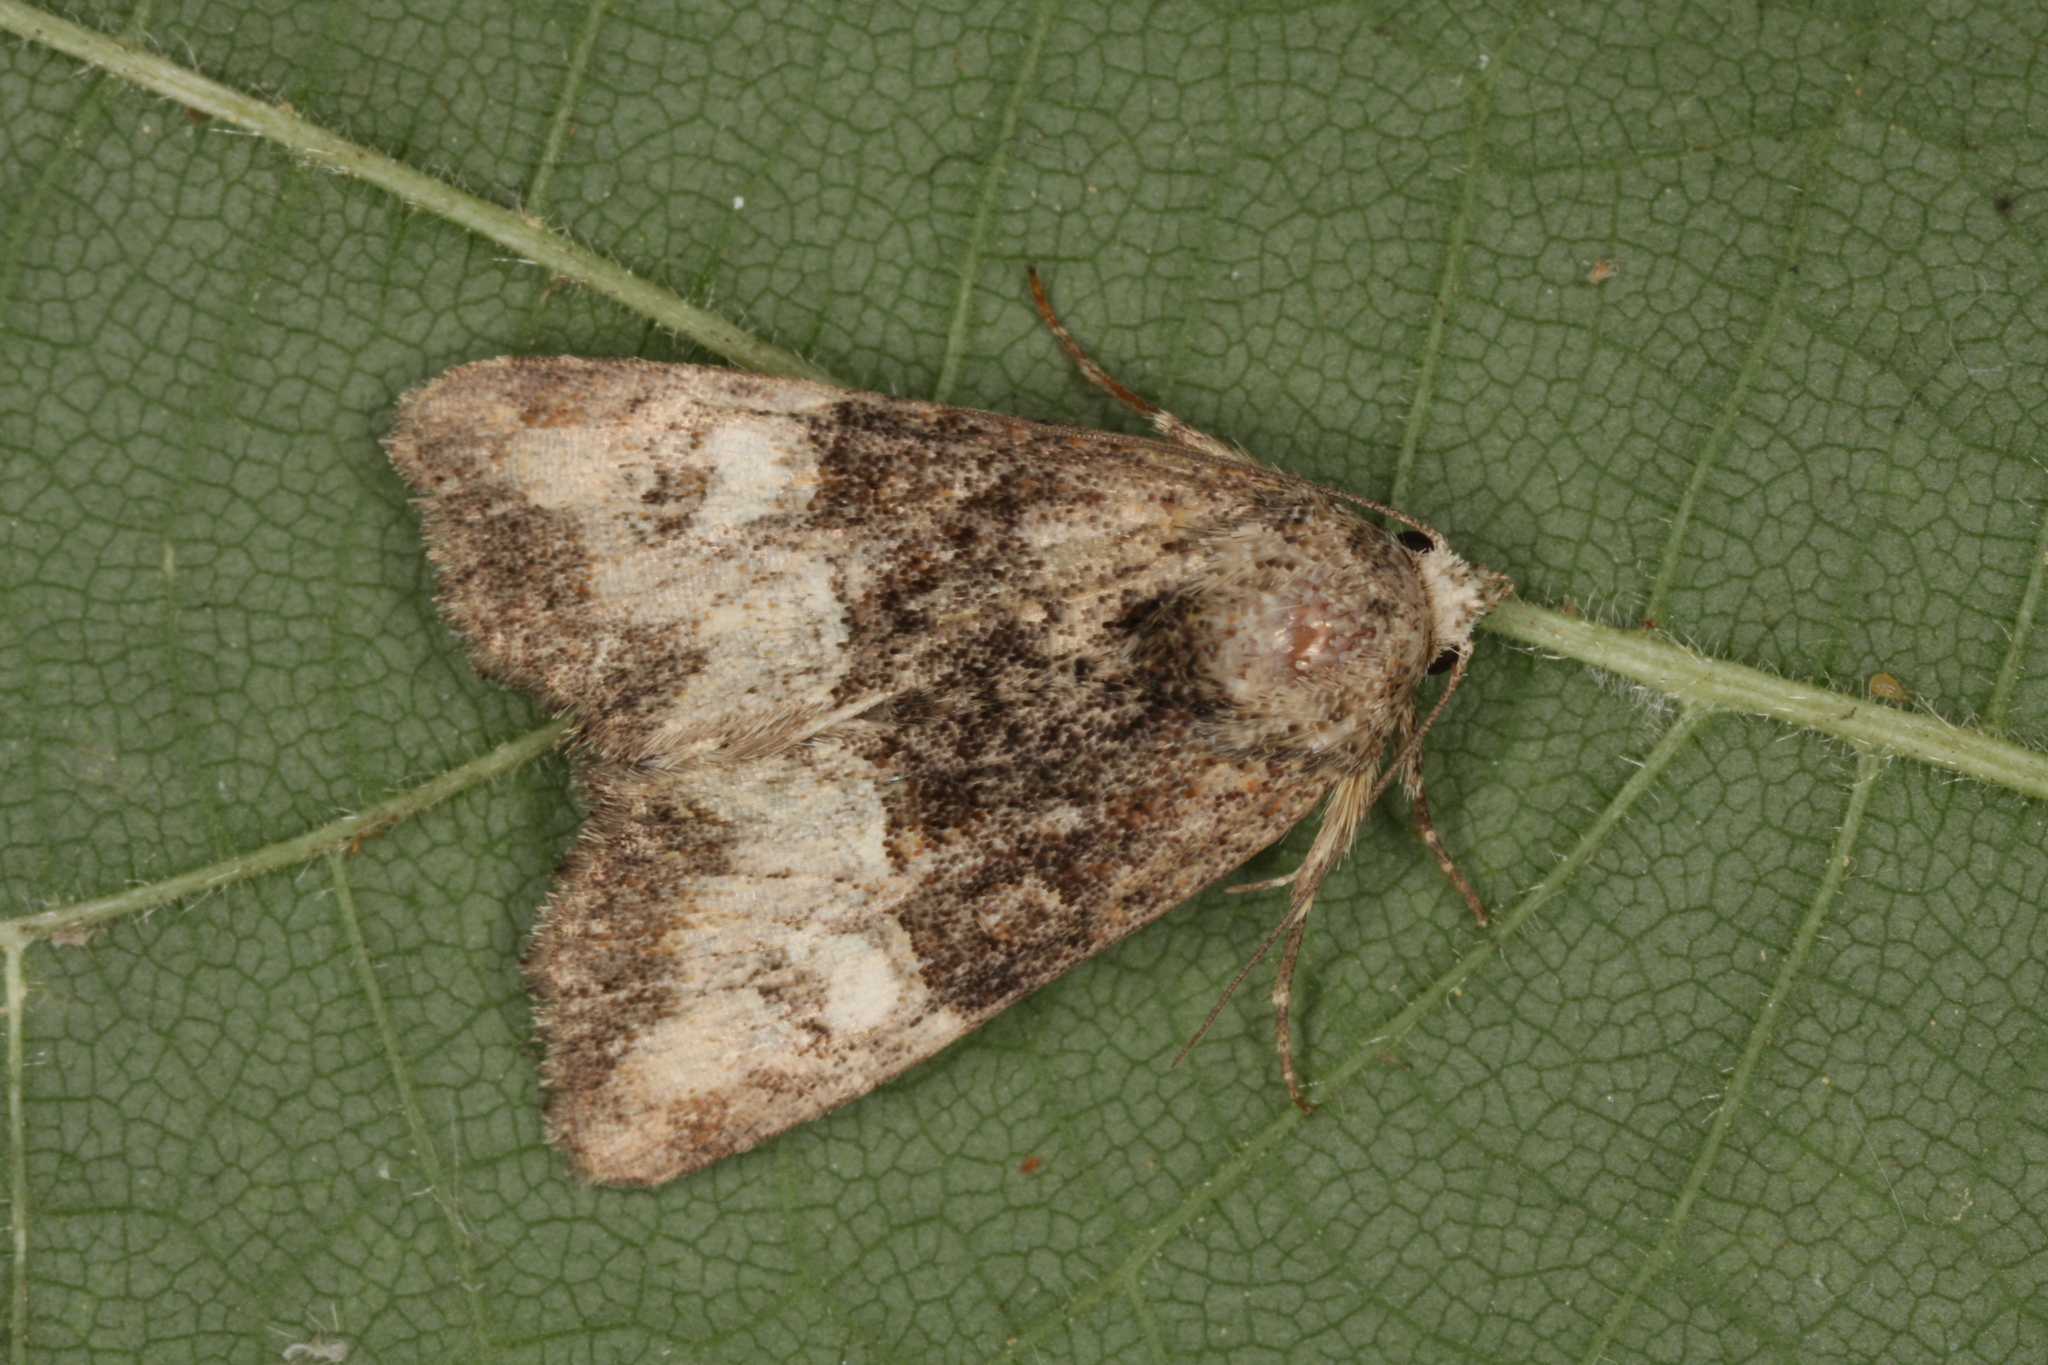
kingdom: Animalia
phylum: Arthropoda
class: Insecta
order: Lepidoptera
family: Noctuidae
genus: Mesoligia
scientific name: Mesoligia furuncula
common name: Cloaked minor
